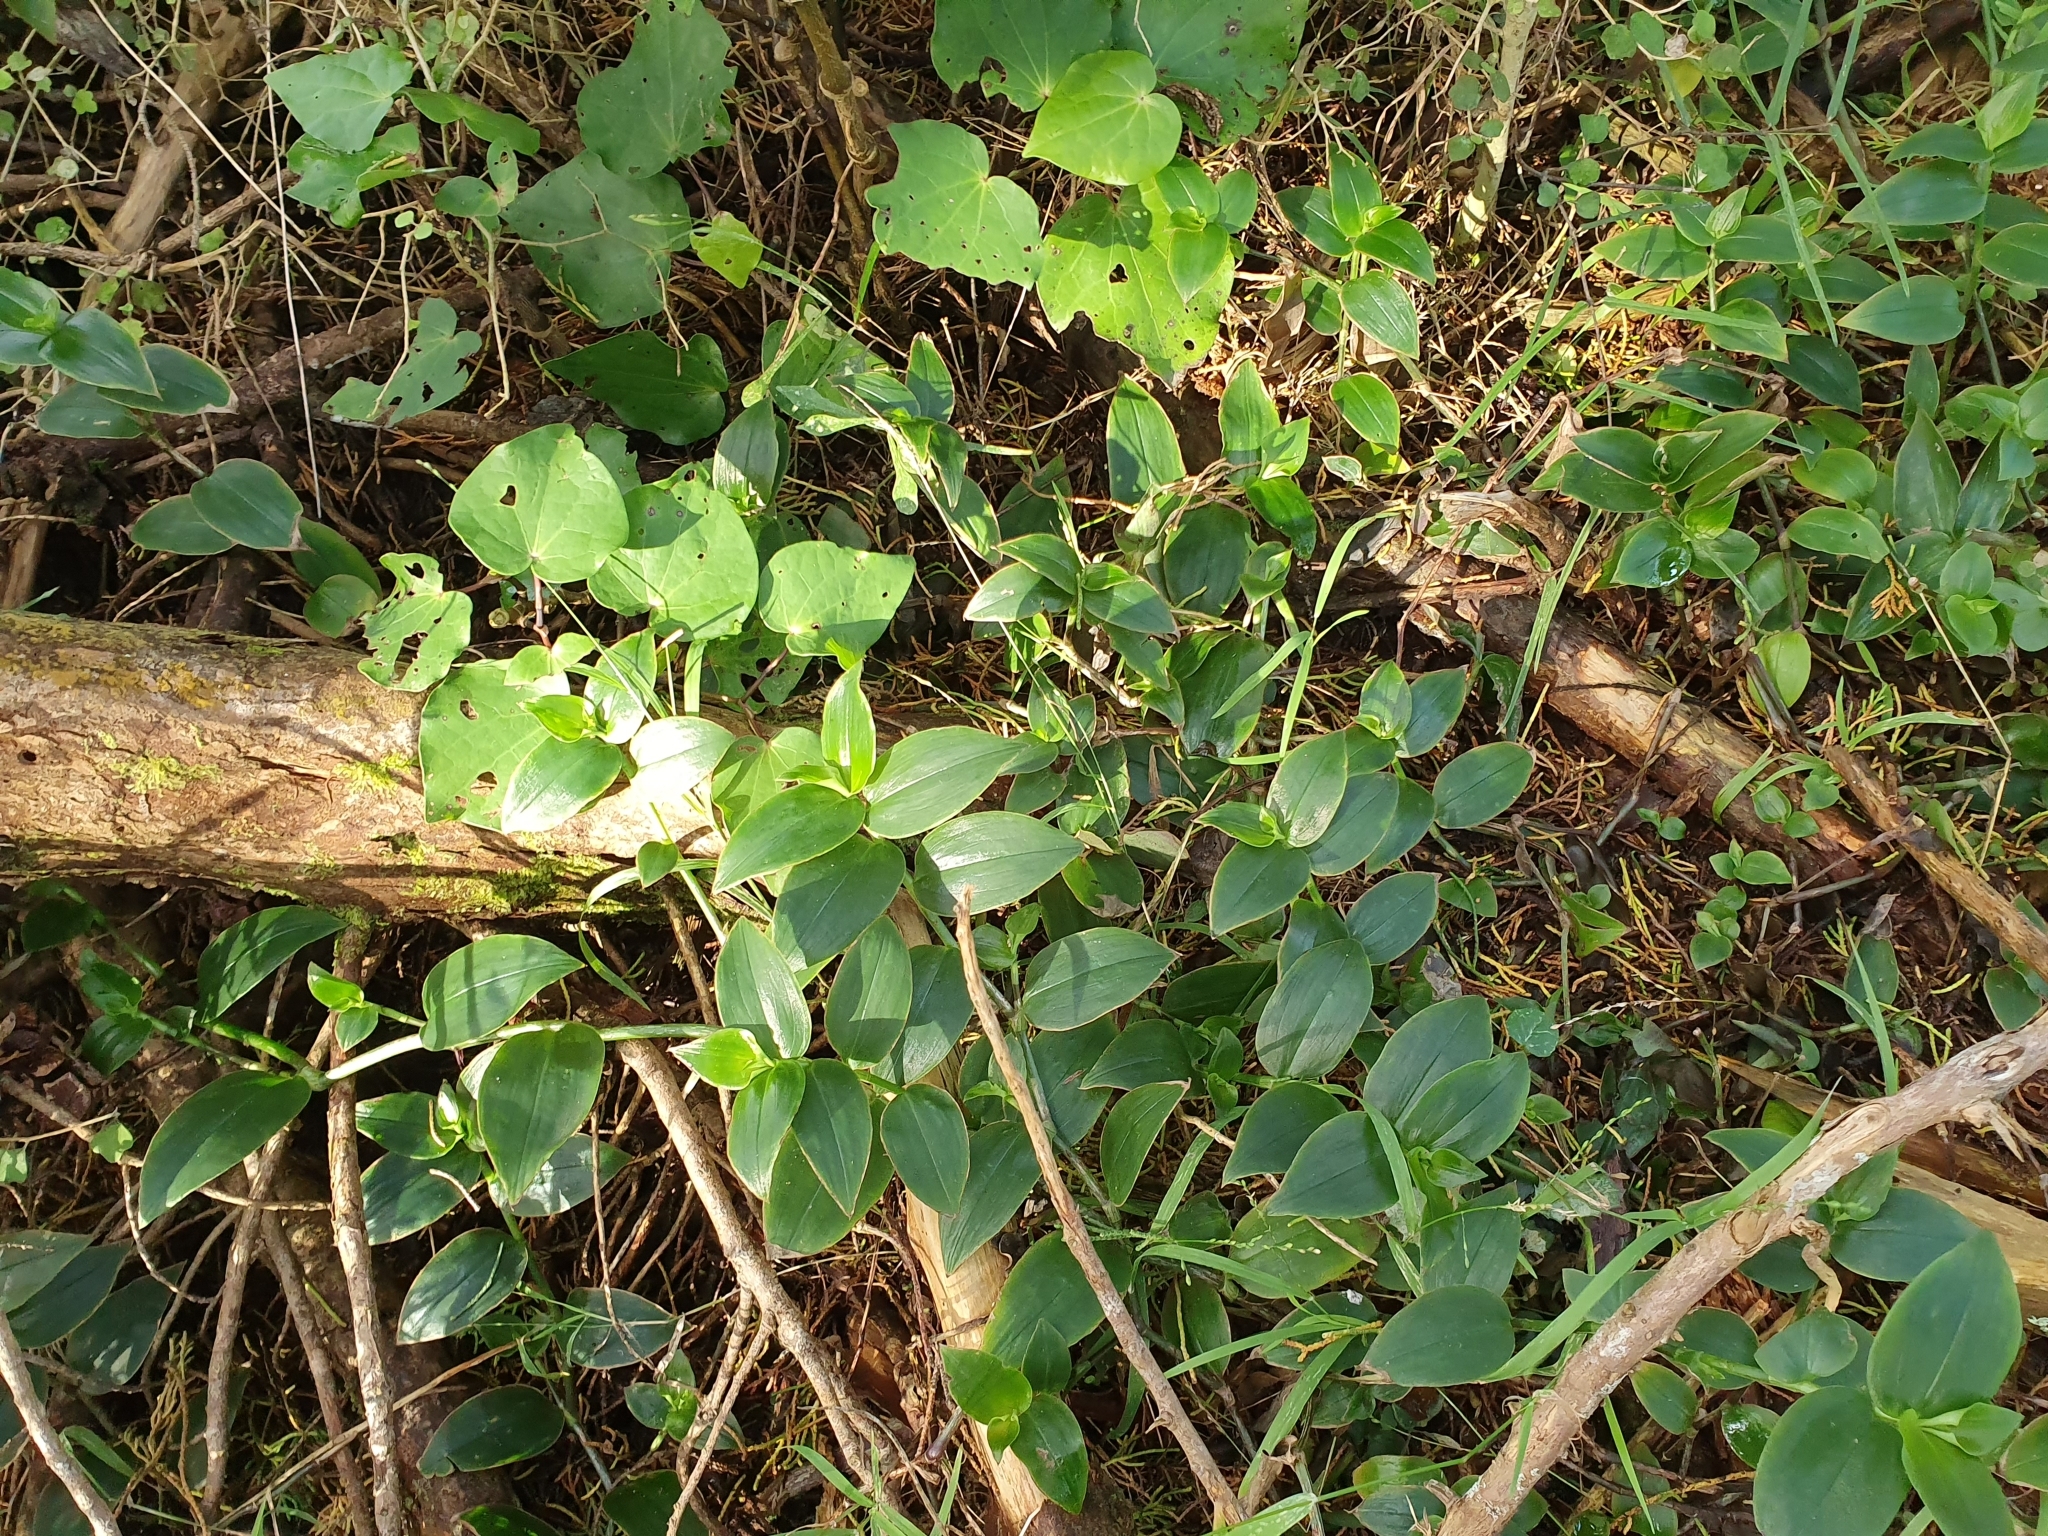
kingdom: Plantae
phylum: Tracheophyta
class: Liliopsida
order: Commelinales
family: Commelinaceae
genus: Tradescantia
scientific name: Tradescantia fluminensis
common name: Wandering-jew
